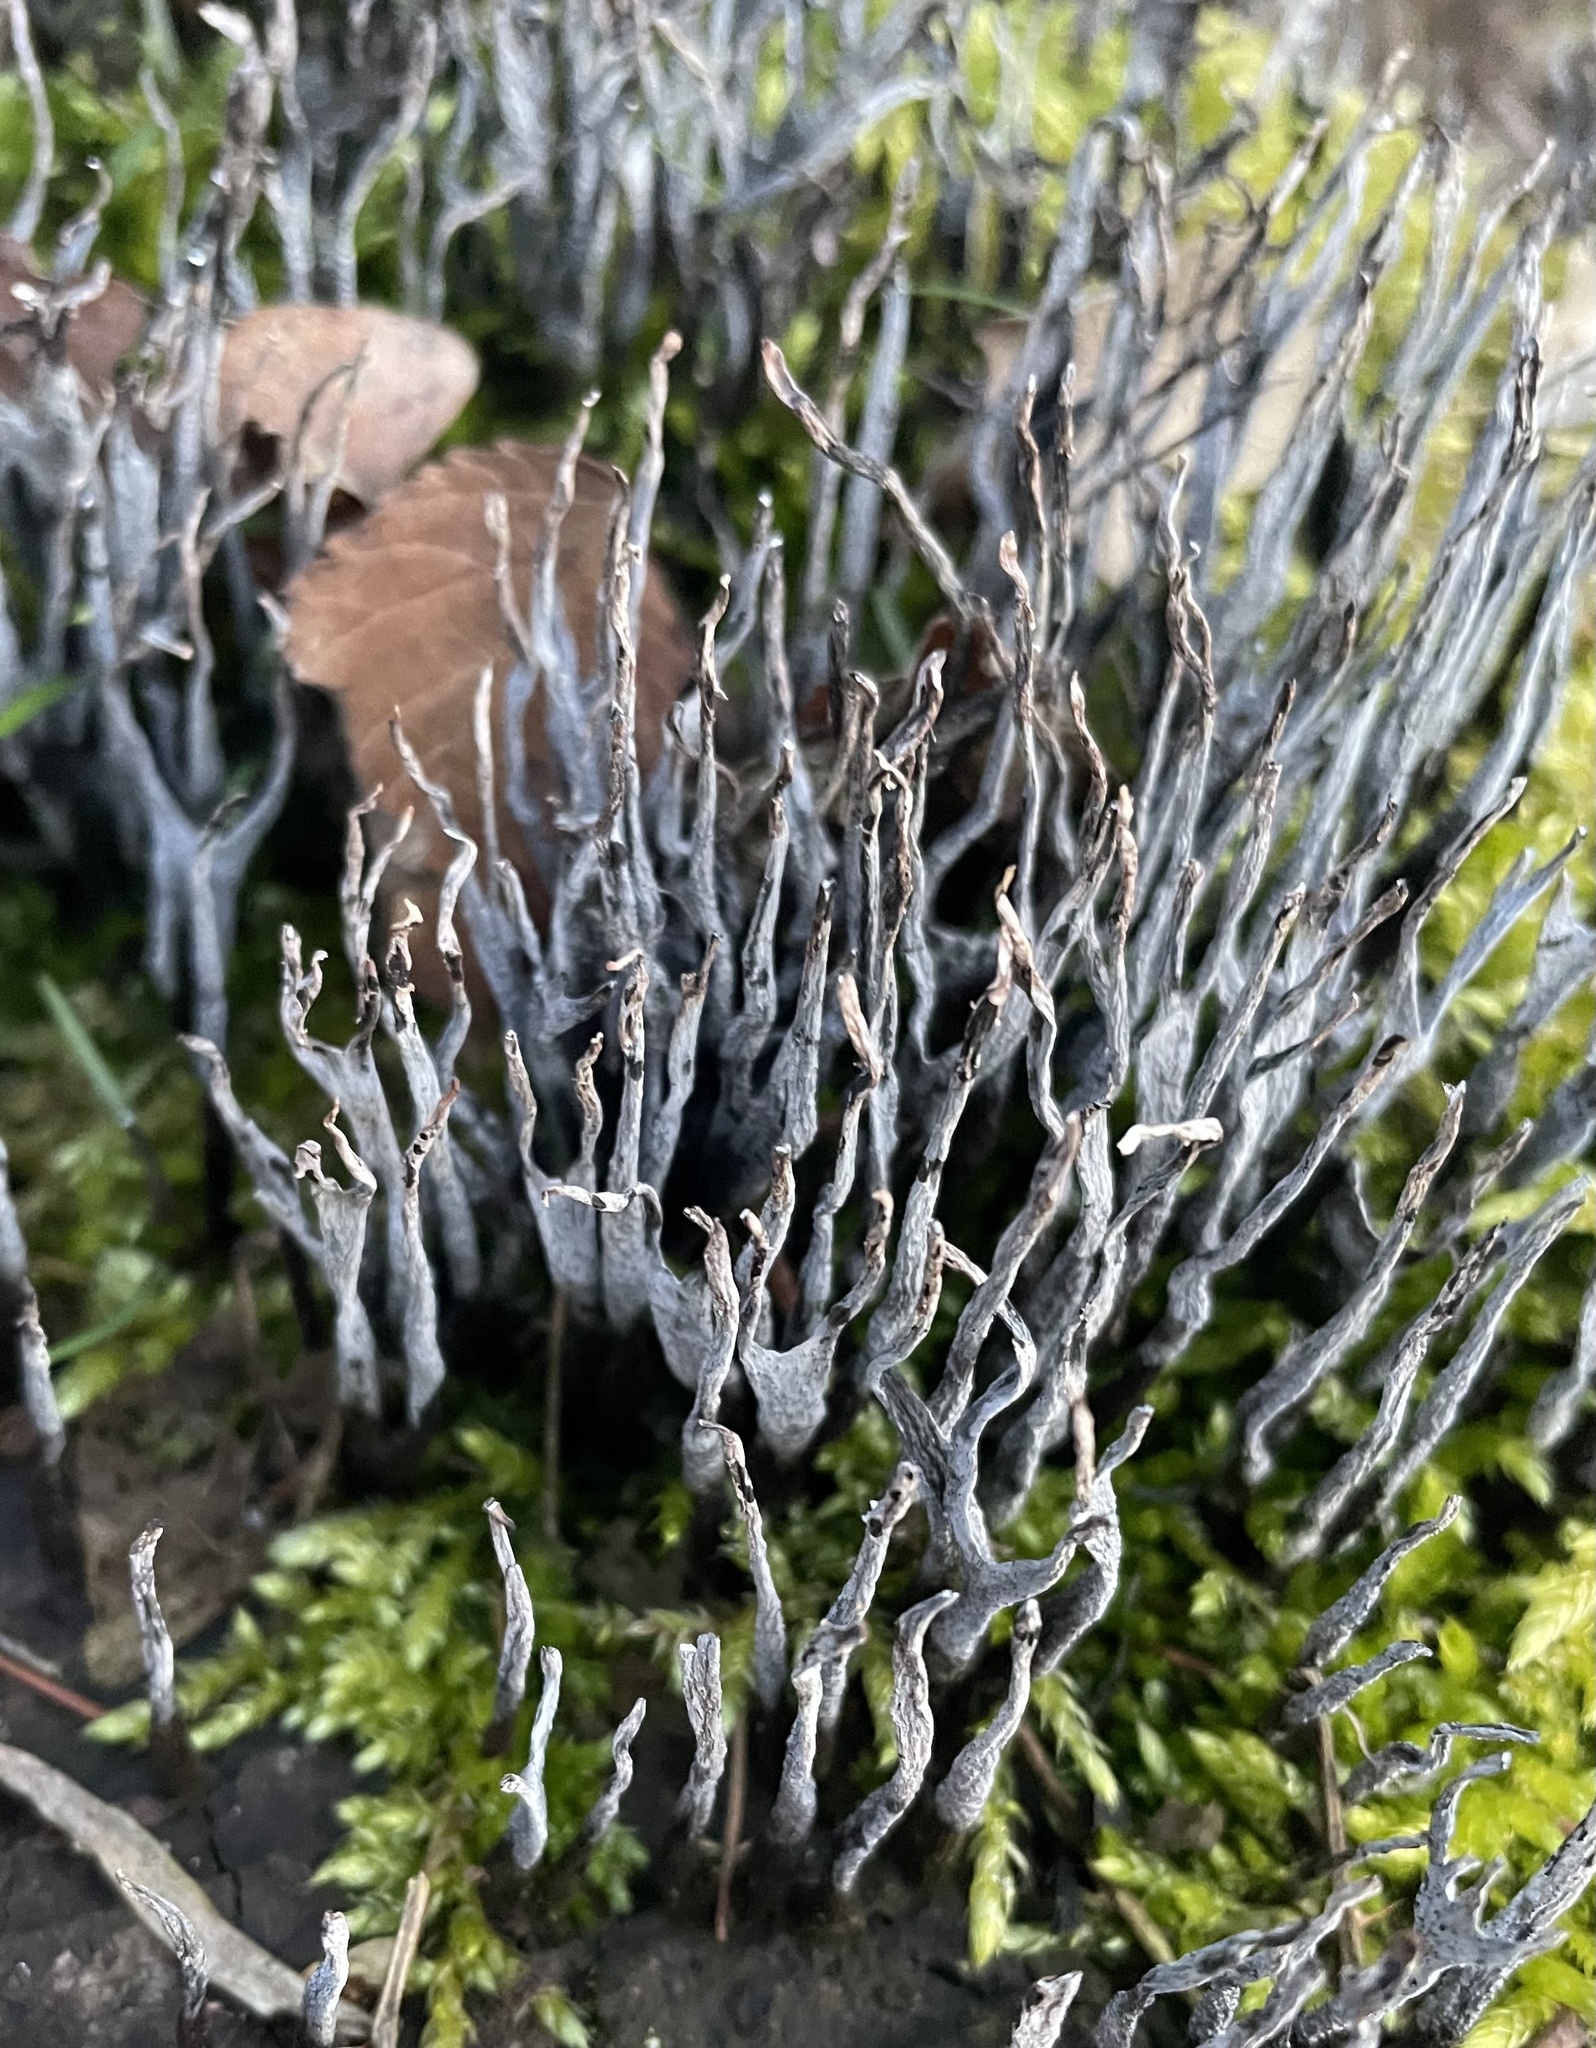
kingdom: Fungi
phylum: Ascomycota
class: Sordariomycetes
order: Xylariales
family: Xylariaceae
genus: Xylaria
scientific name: Xylaria hypoxylon
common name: Candle-snuff fungus
